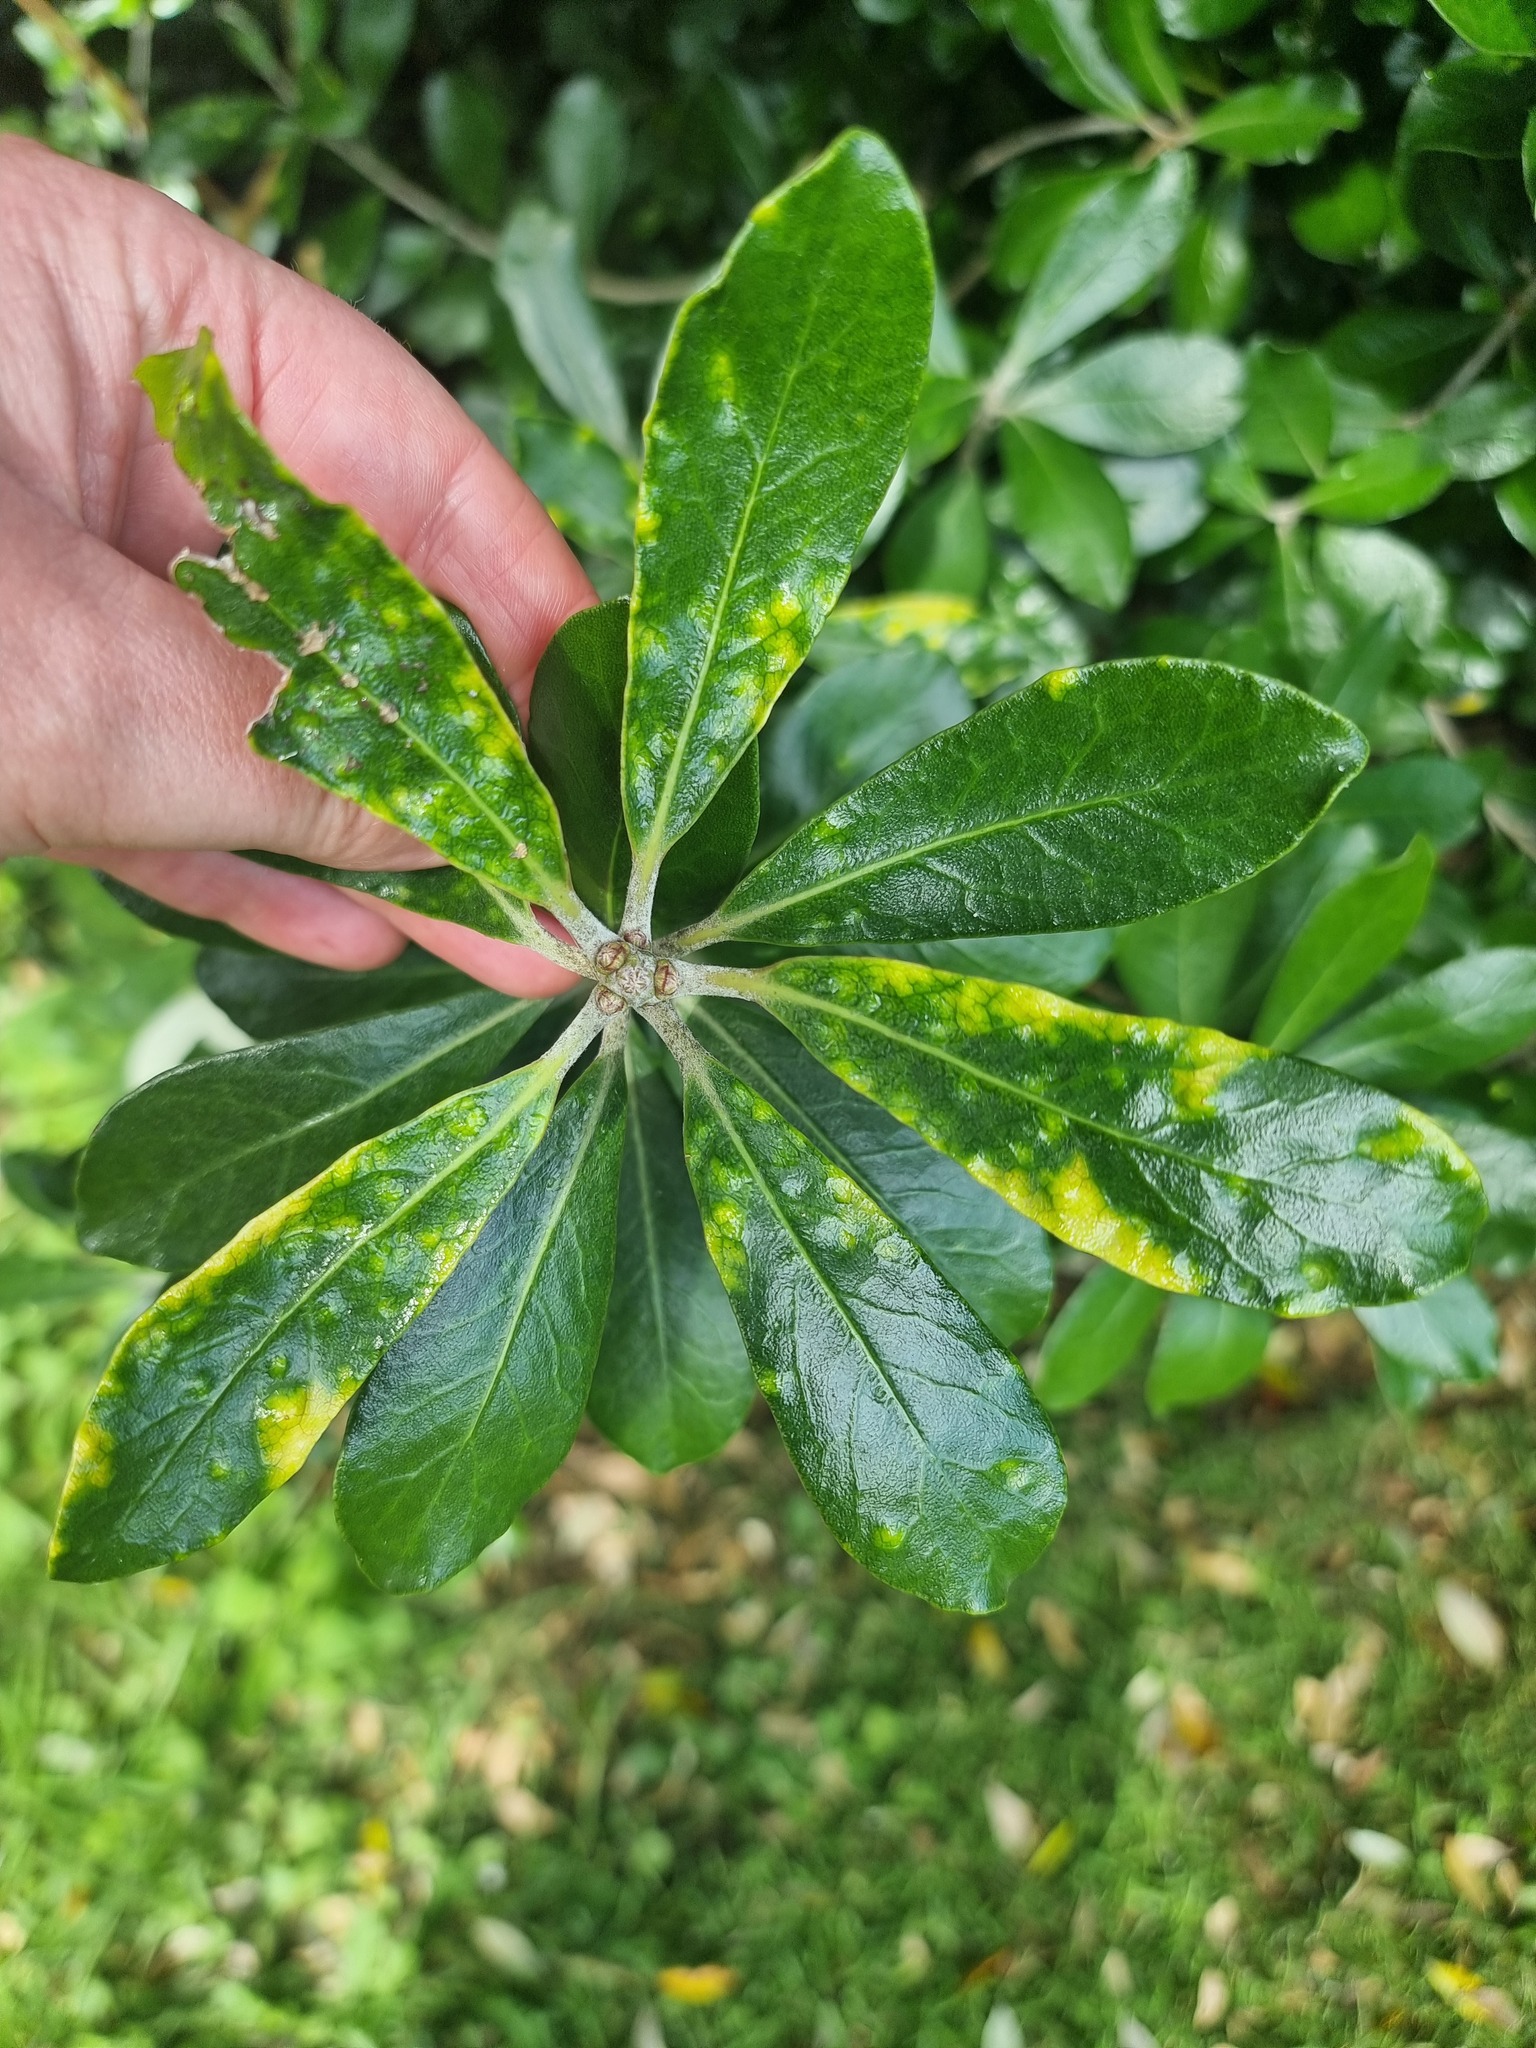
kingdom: Plantae
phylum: Tracheophyta
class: Magnoliopsida
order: Apiales
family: Pittosporaceae
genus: Pittosporum
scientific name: Pittosporum crassifolium
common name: Karo
